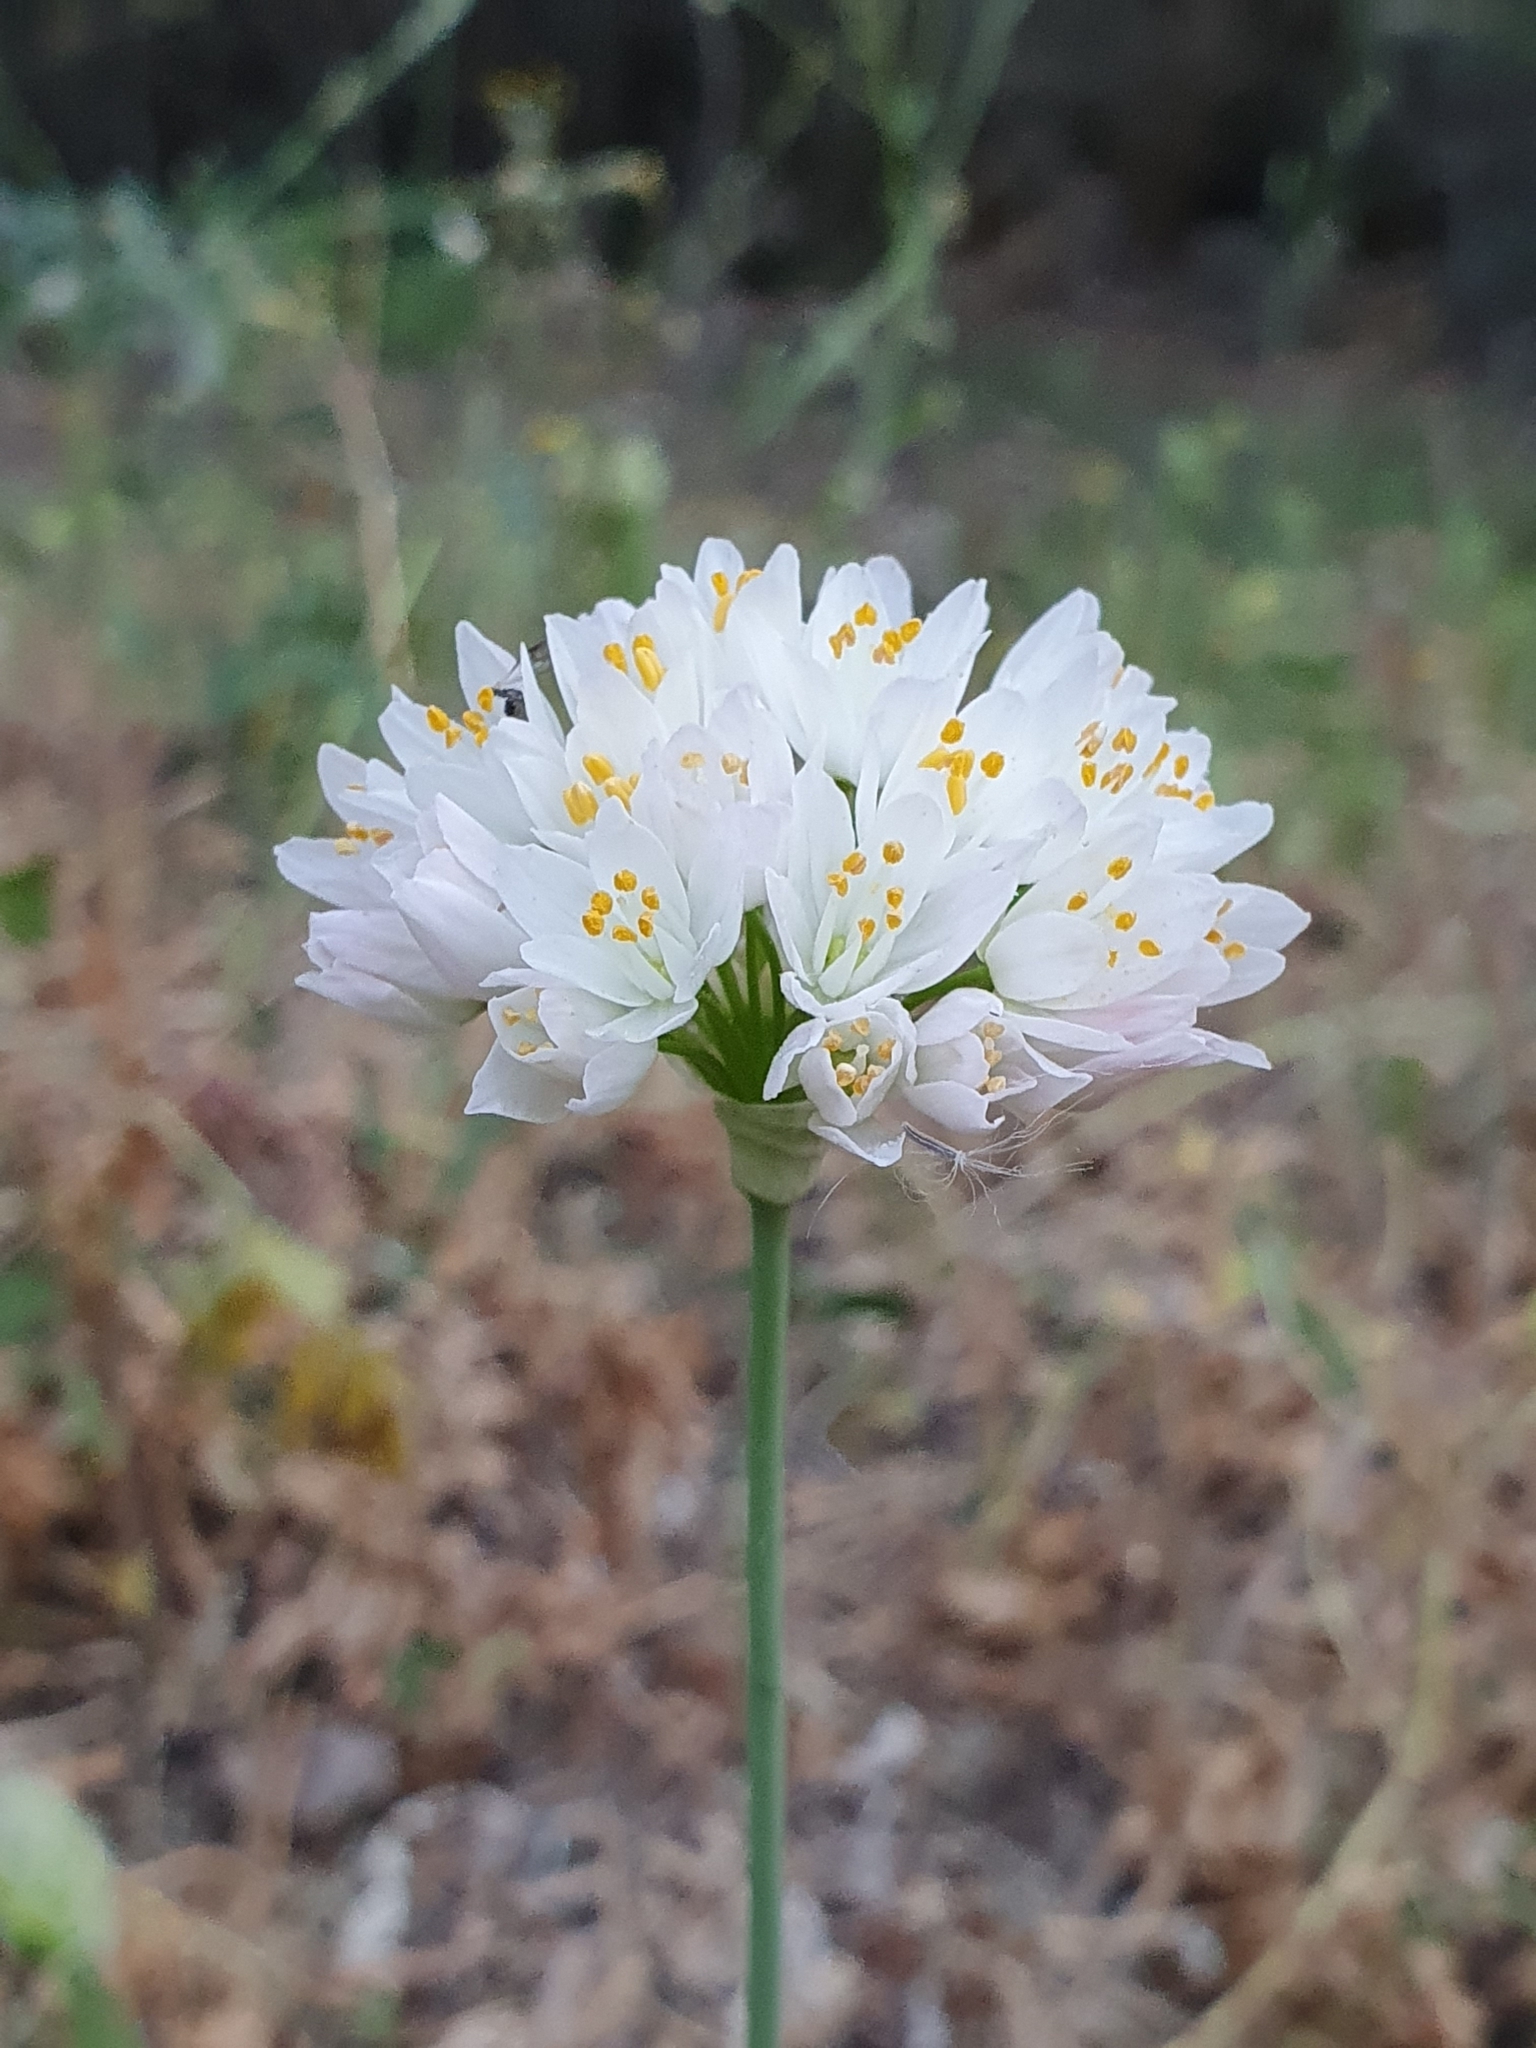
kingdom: Plantae
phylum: Tracheophyta
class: Liliopsida
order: Asparagales
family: Amaryllidaceae
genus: Allium
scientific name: Allium roseum
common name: Rosy garlic
